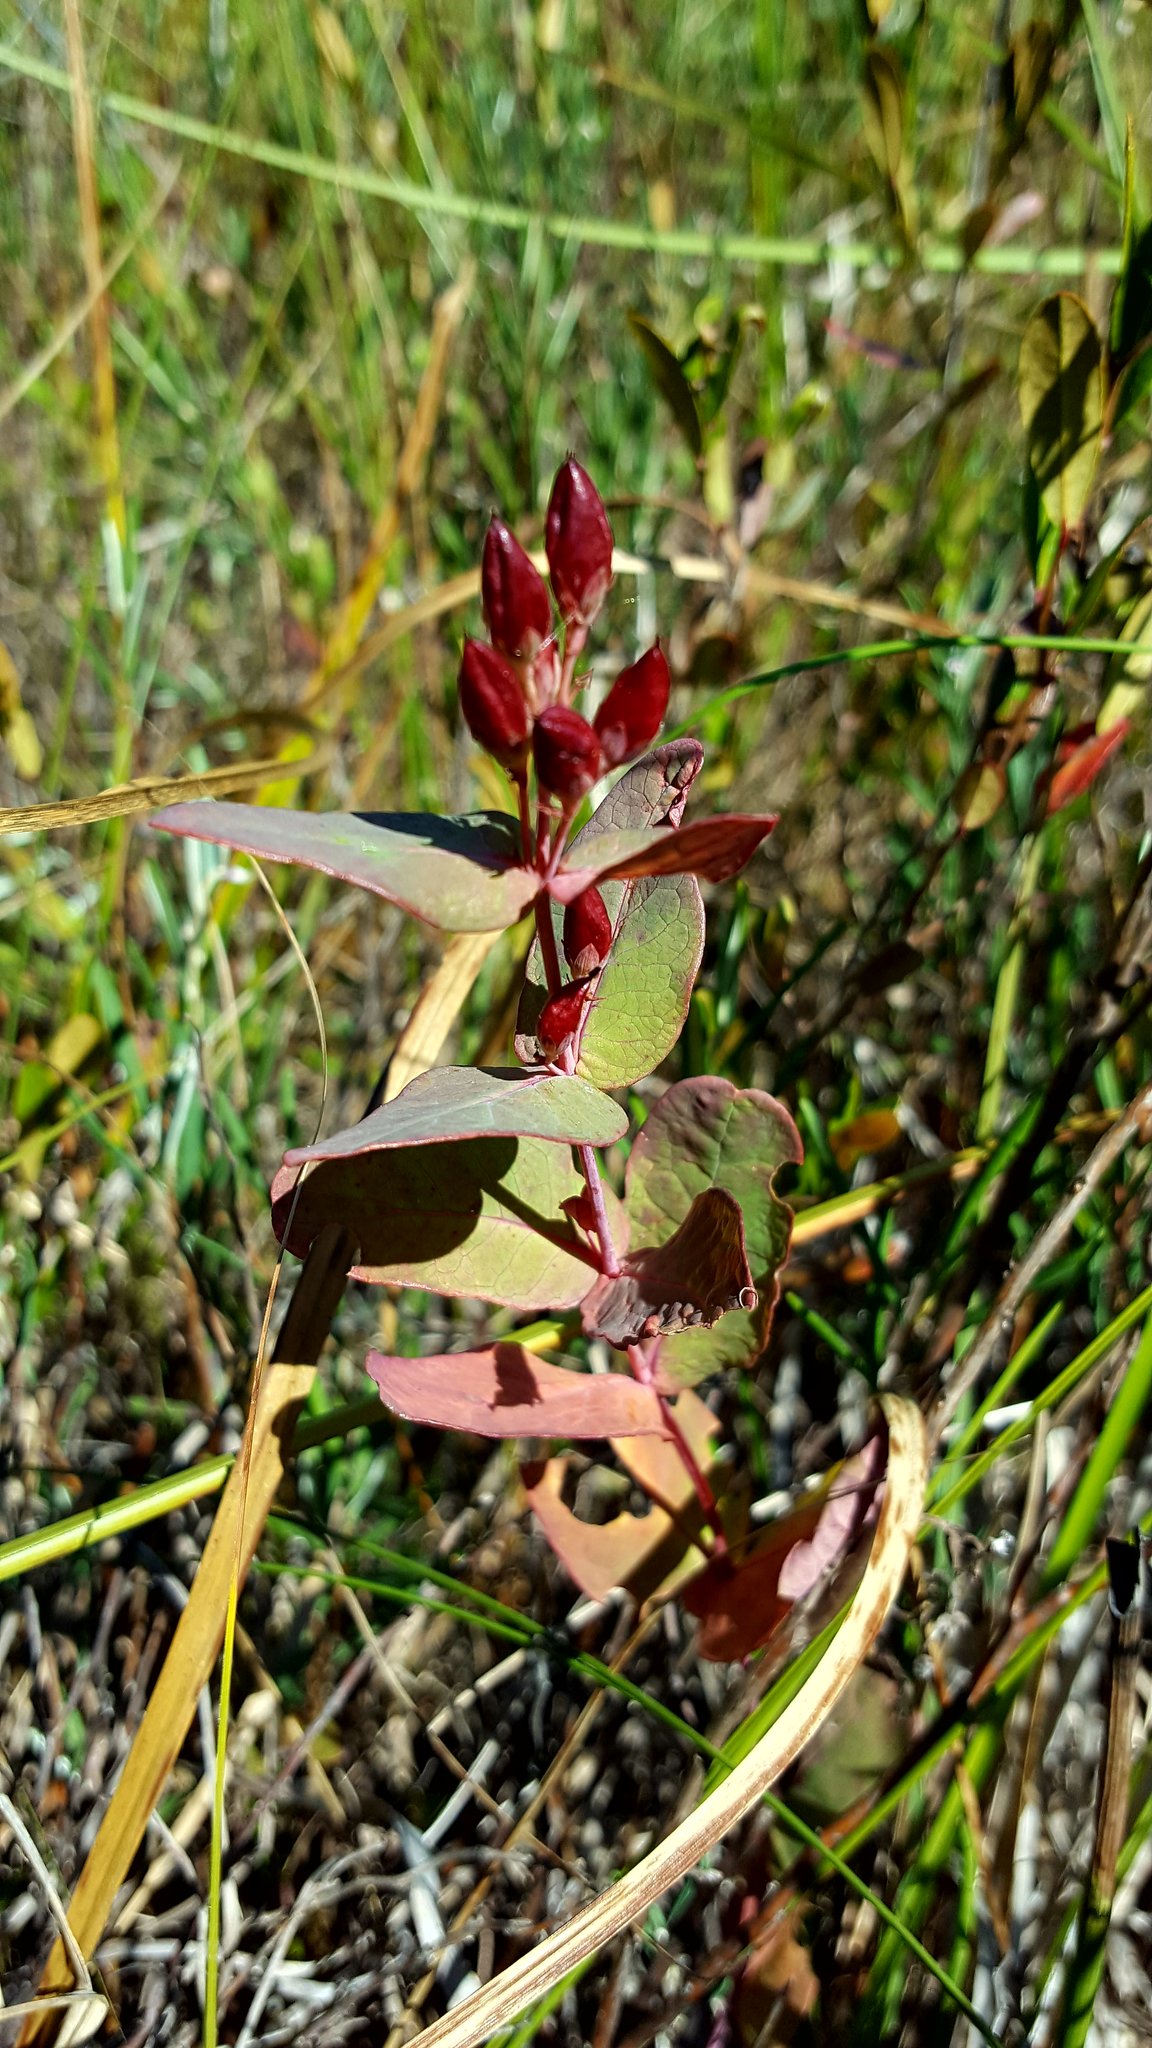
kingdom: Plantae
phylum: Tracheophyta
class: Magnoliopsida
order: Malpighiales
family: Hypericaceae
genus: Triadenum
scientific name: Triadenum fraseri
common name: Fraser's marsh st. johnswort
